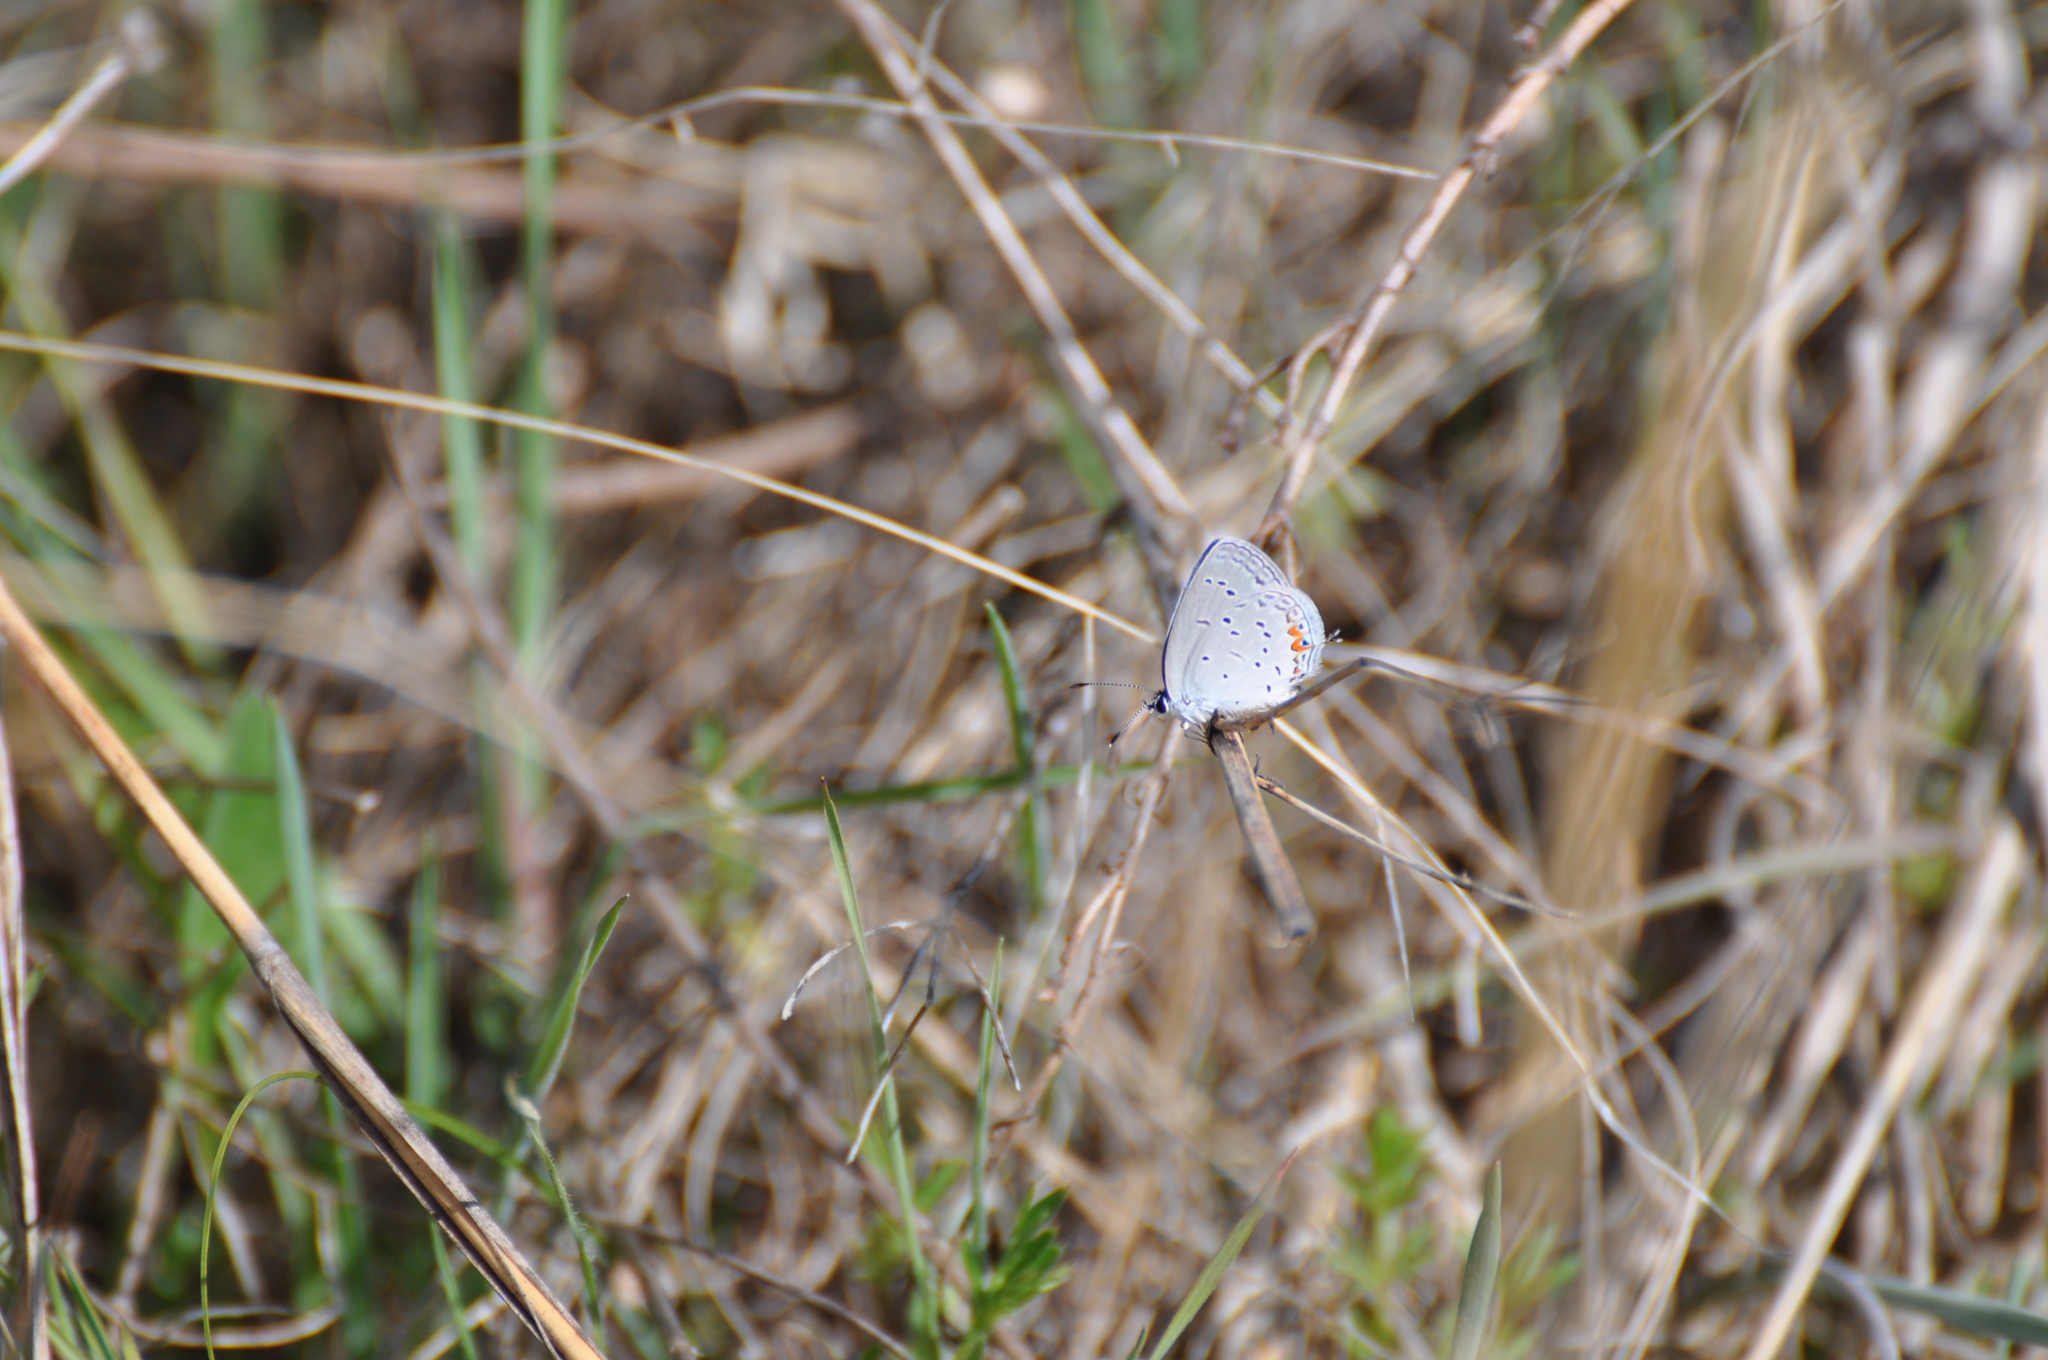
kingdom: Animalia
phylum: Arthropoda
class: Insecta
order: Lepidoptera
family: Lycaenidae
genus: Elkalyce
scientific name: Elkalyce comyntas
